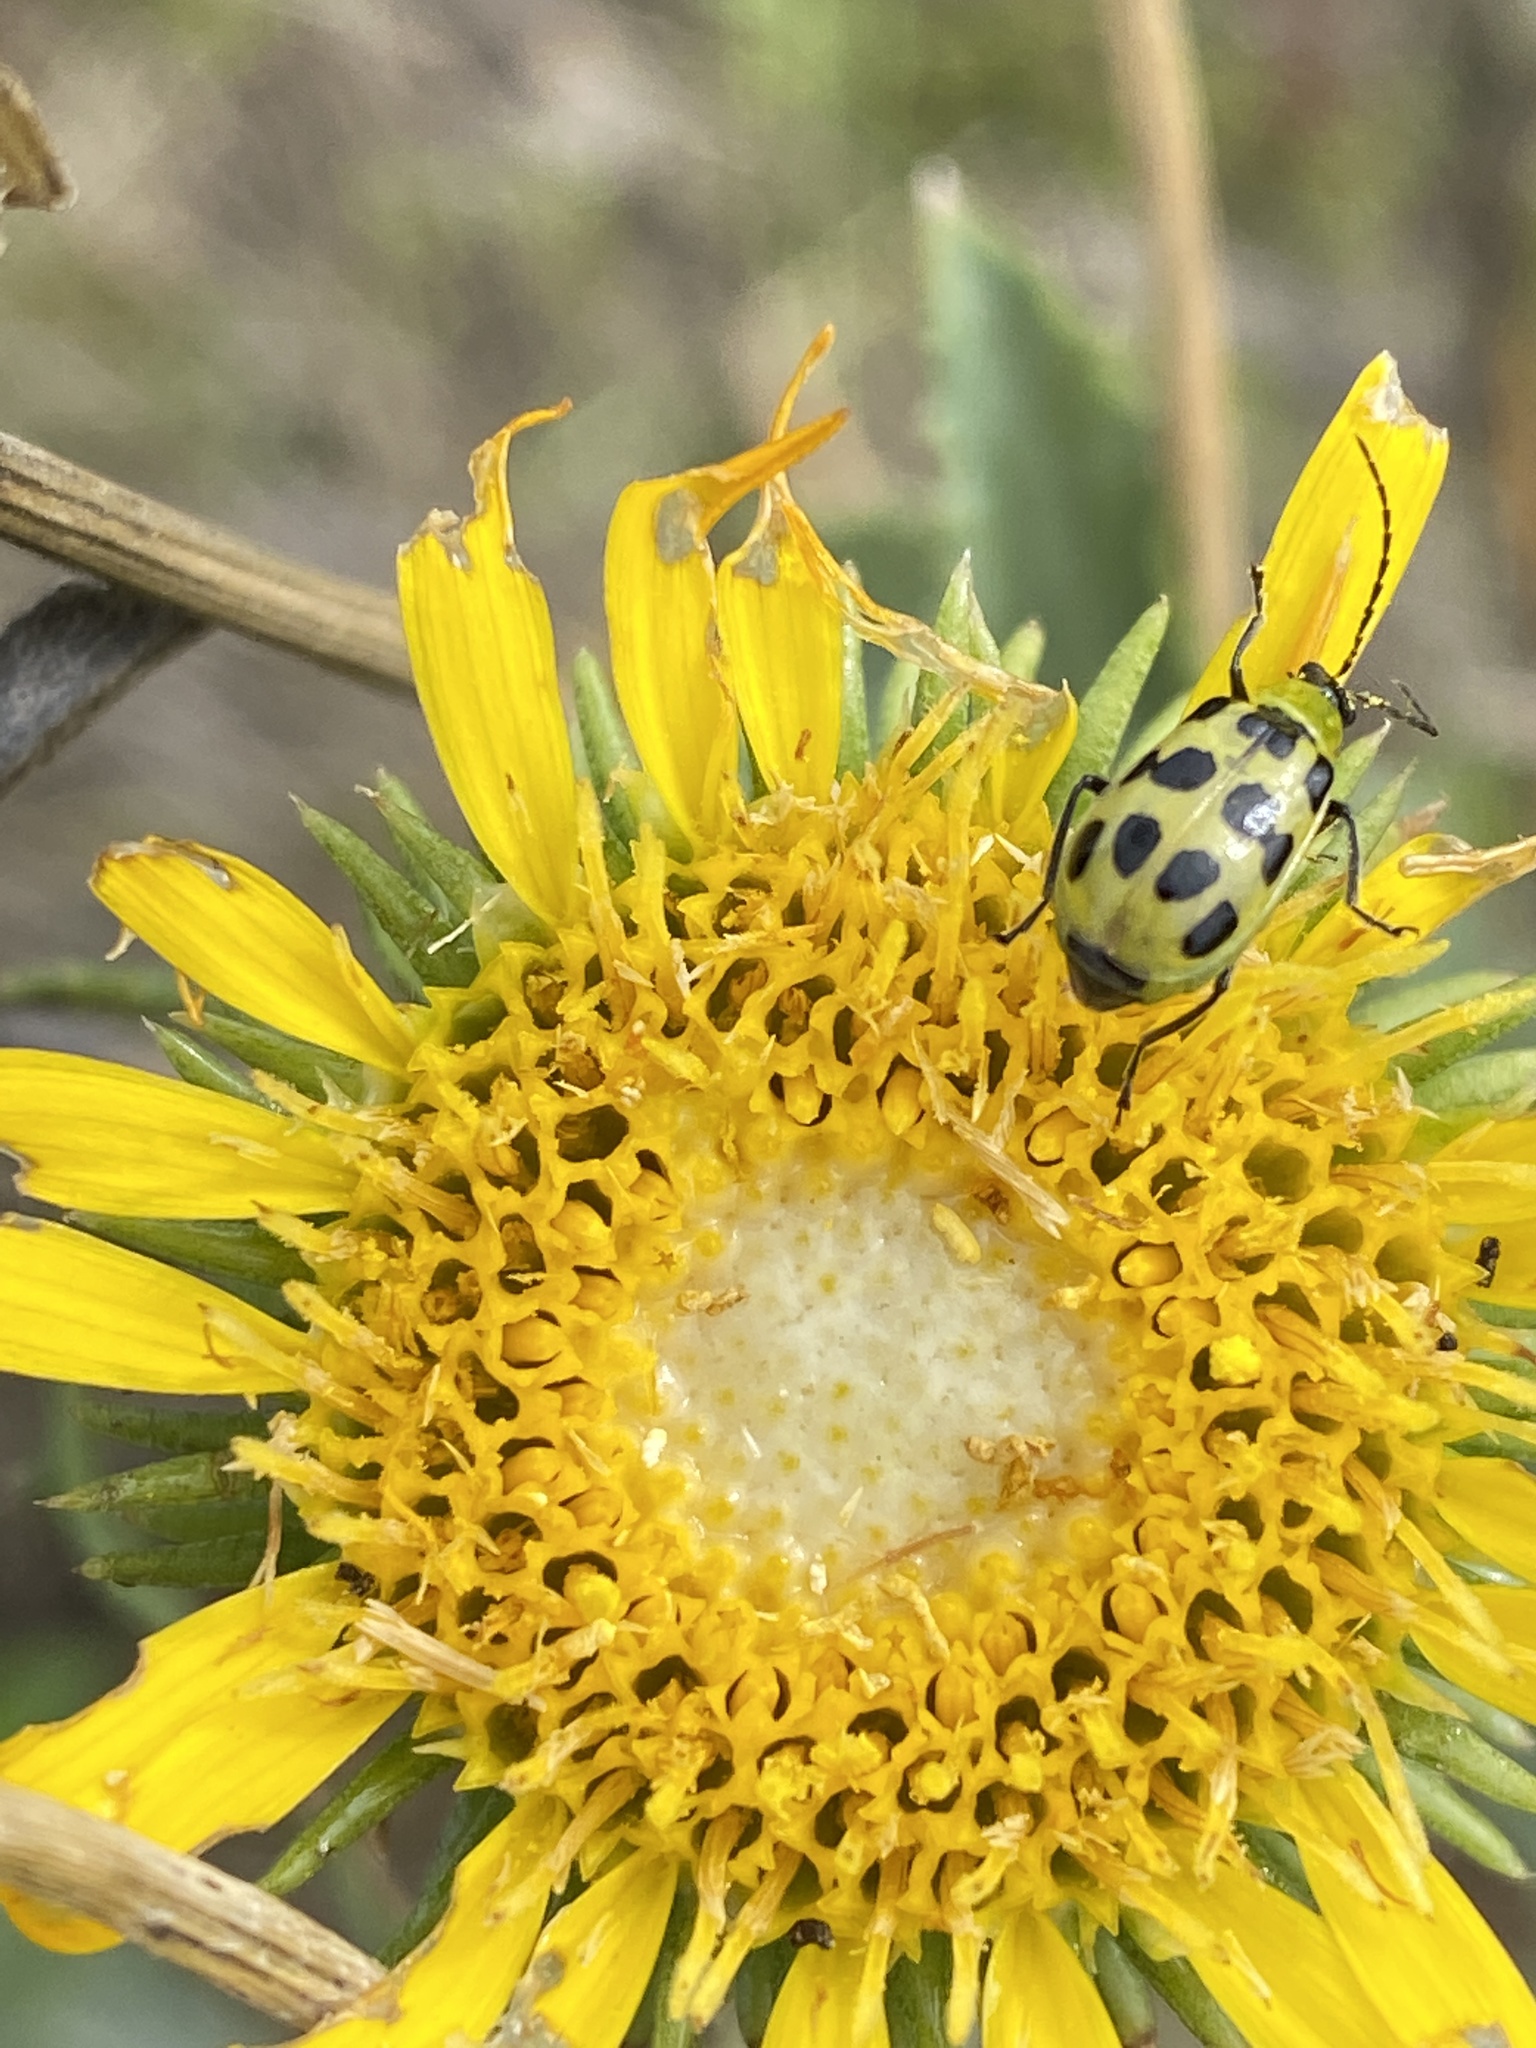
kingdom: Animalia
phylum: Arthropoda
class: Insecta
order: Coleoptera
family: Chrysomelidae
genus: Diabrotica
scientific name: Diabrotica undecimpunctata
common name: Spotted cucumber beetle
